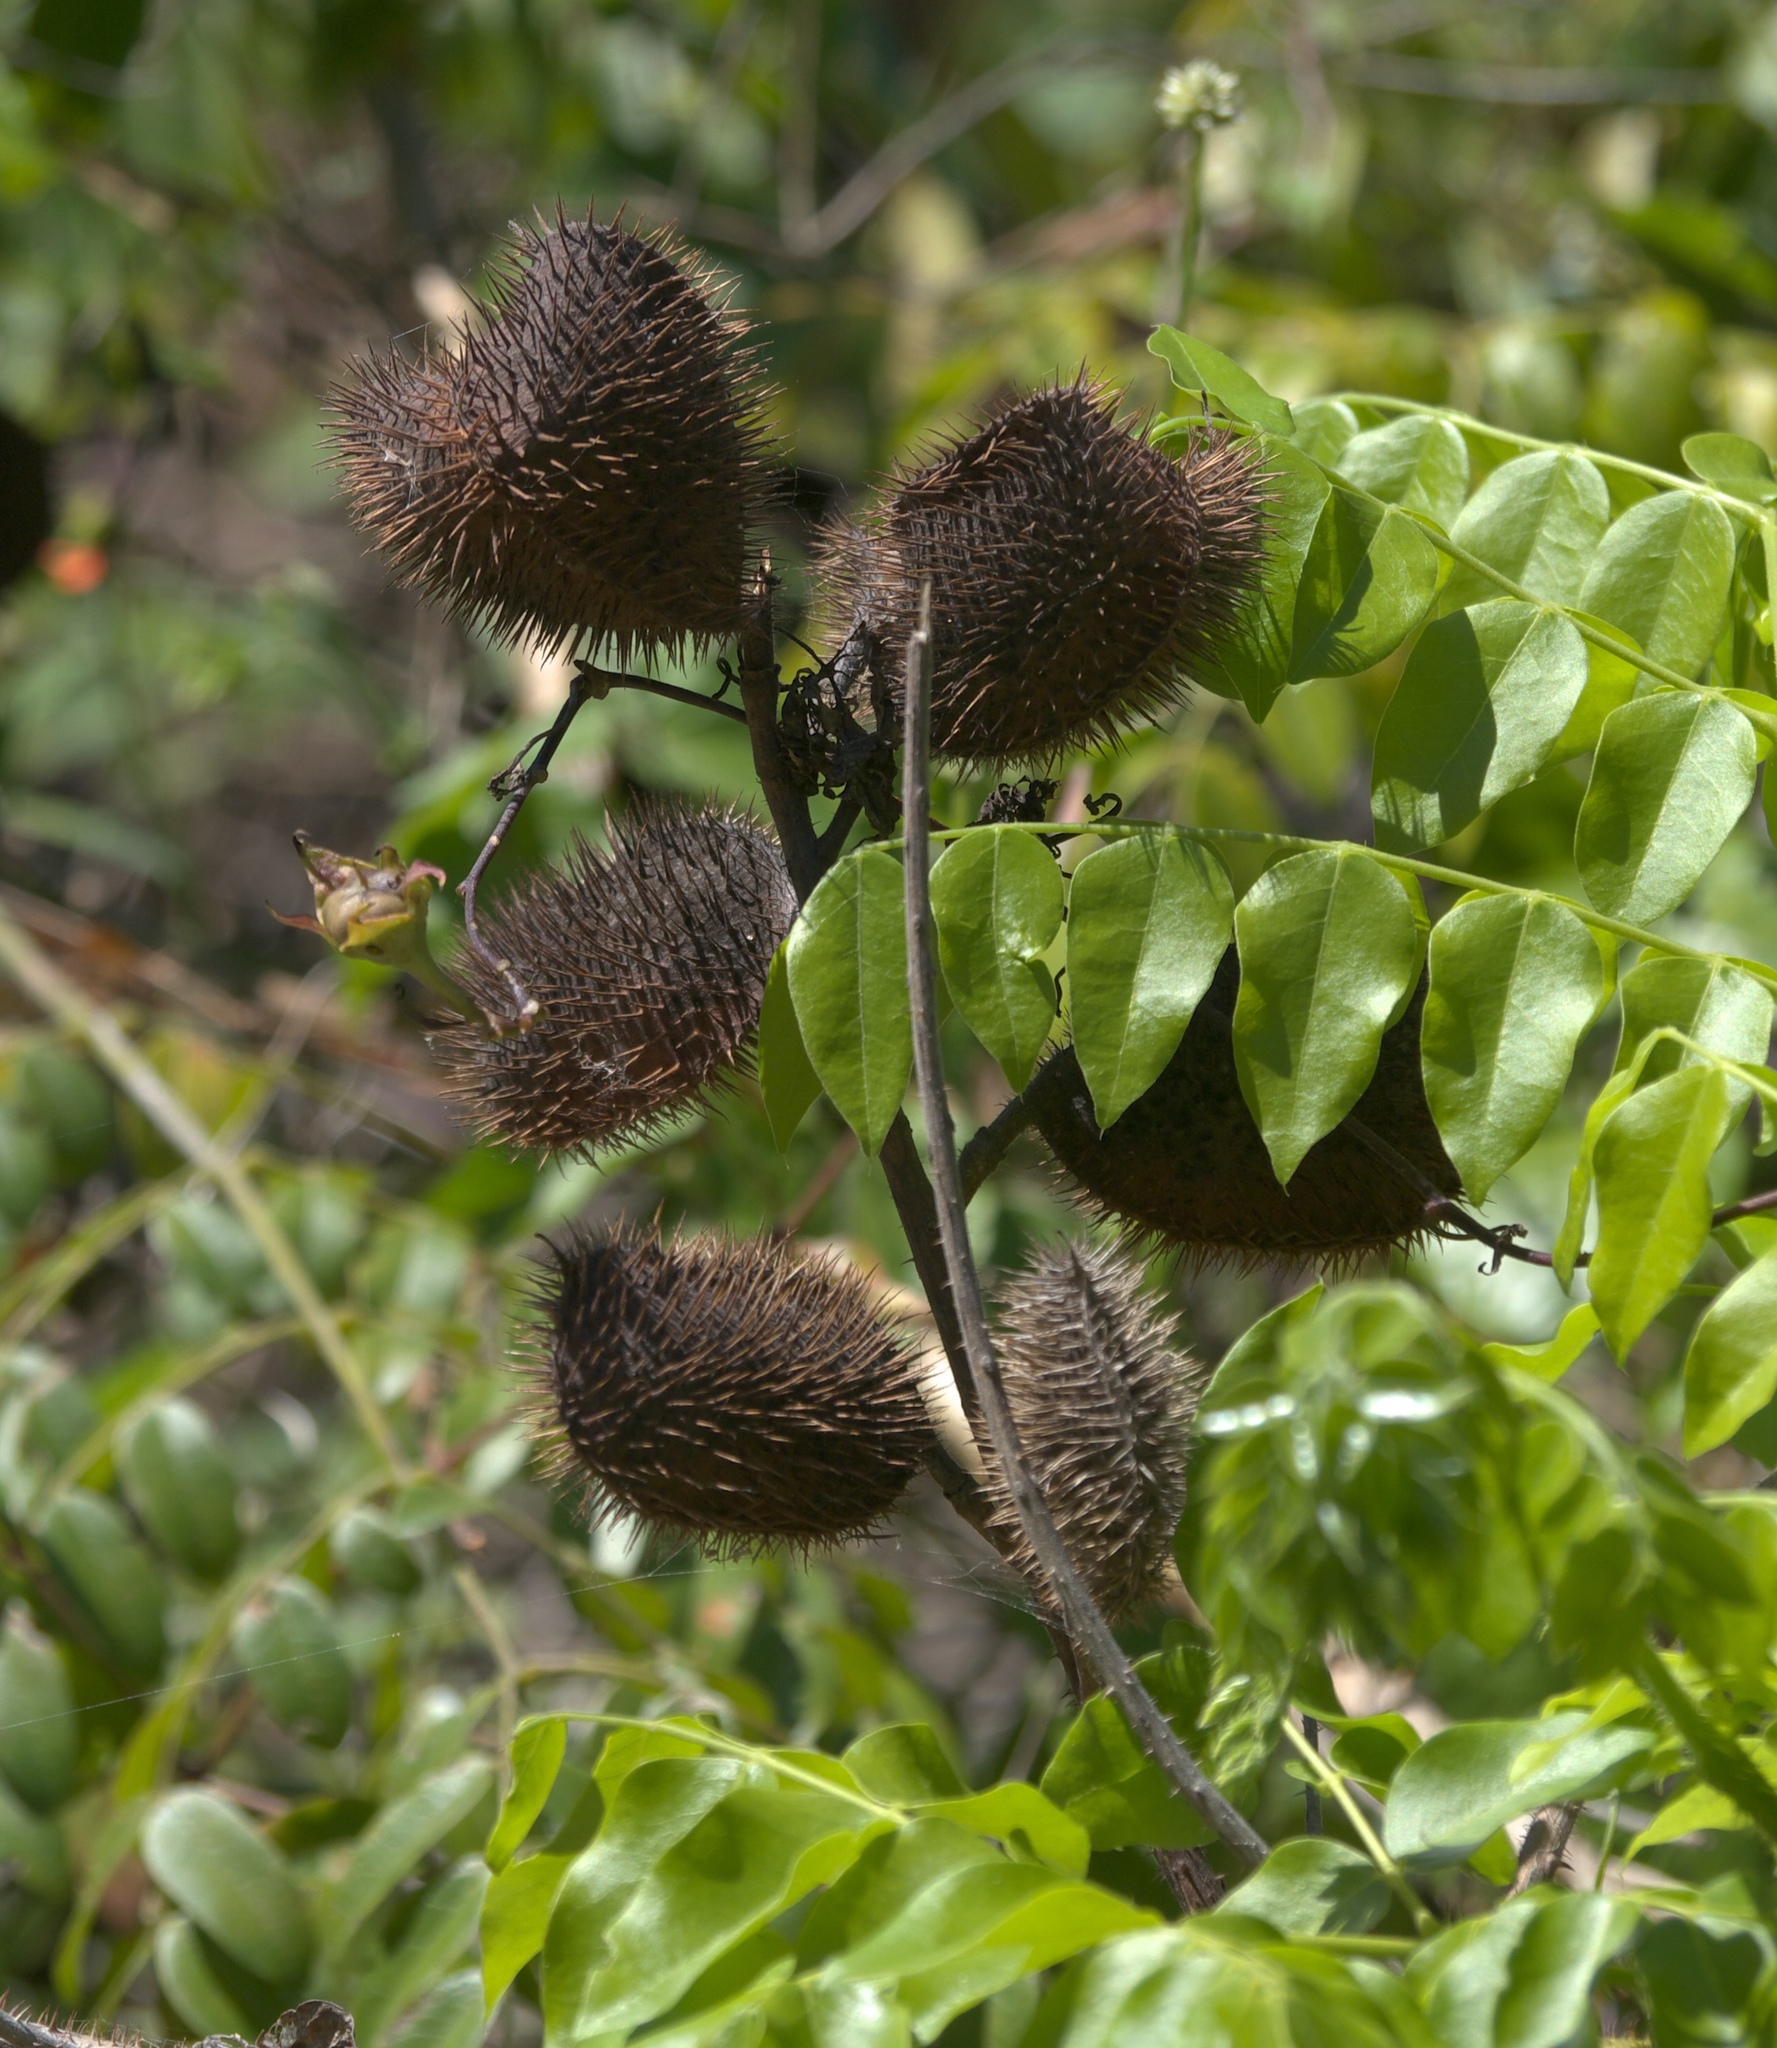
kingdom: Plantae
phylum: Tracheophyta
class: Magnoliopsida
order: Fabales
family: Fabaceae
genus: Guilandina
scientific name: Guilandina bonduc
